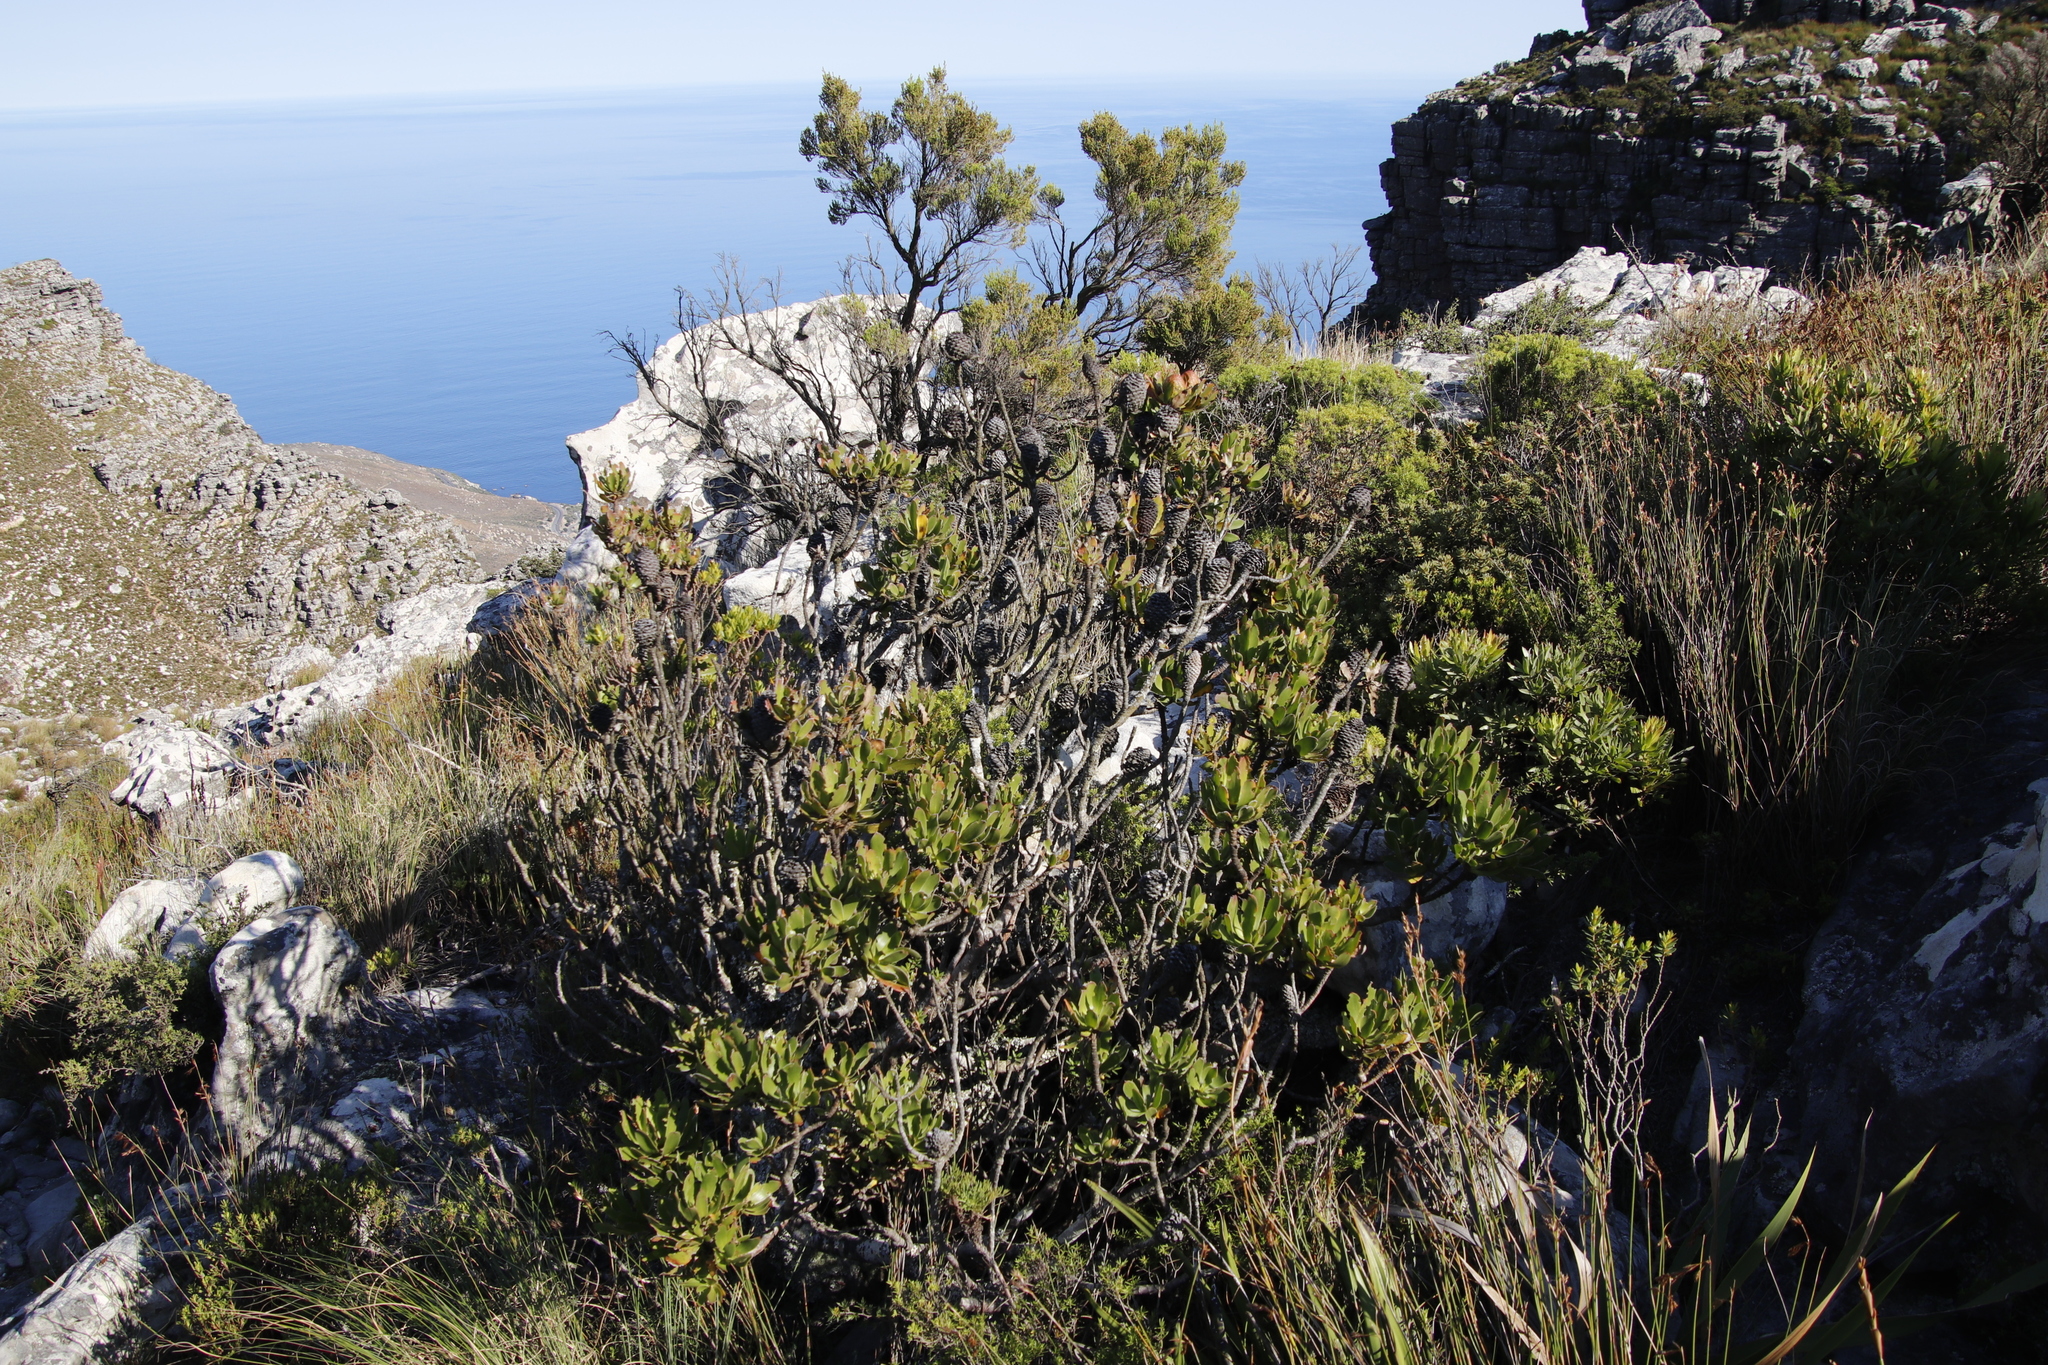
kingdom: Plantae
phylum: Tracheophyta
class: Magnoliopsida
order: Proteales
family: Proteaceae
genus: Leucadendron
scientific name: Leucadendron strobilinum
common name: Mountain rose
